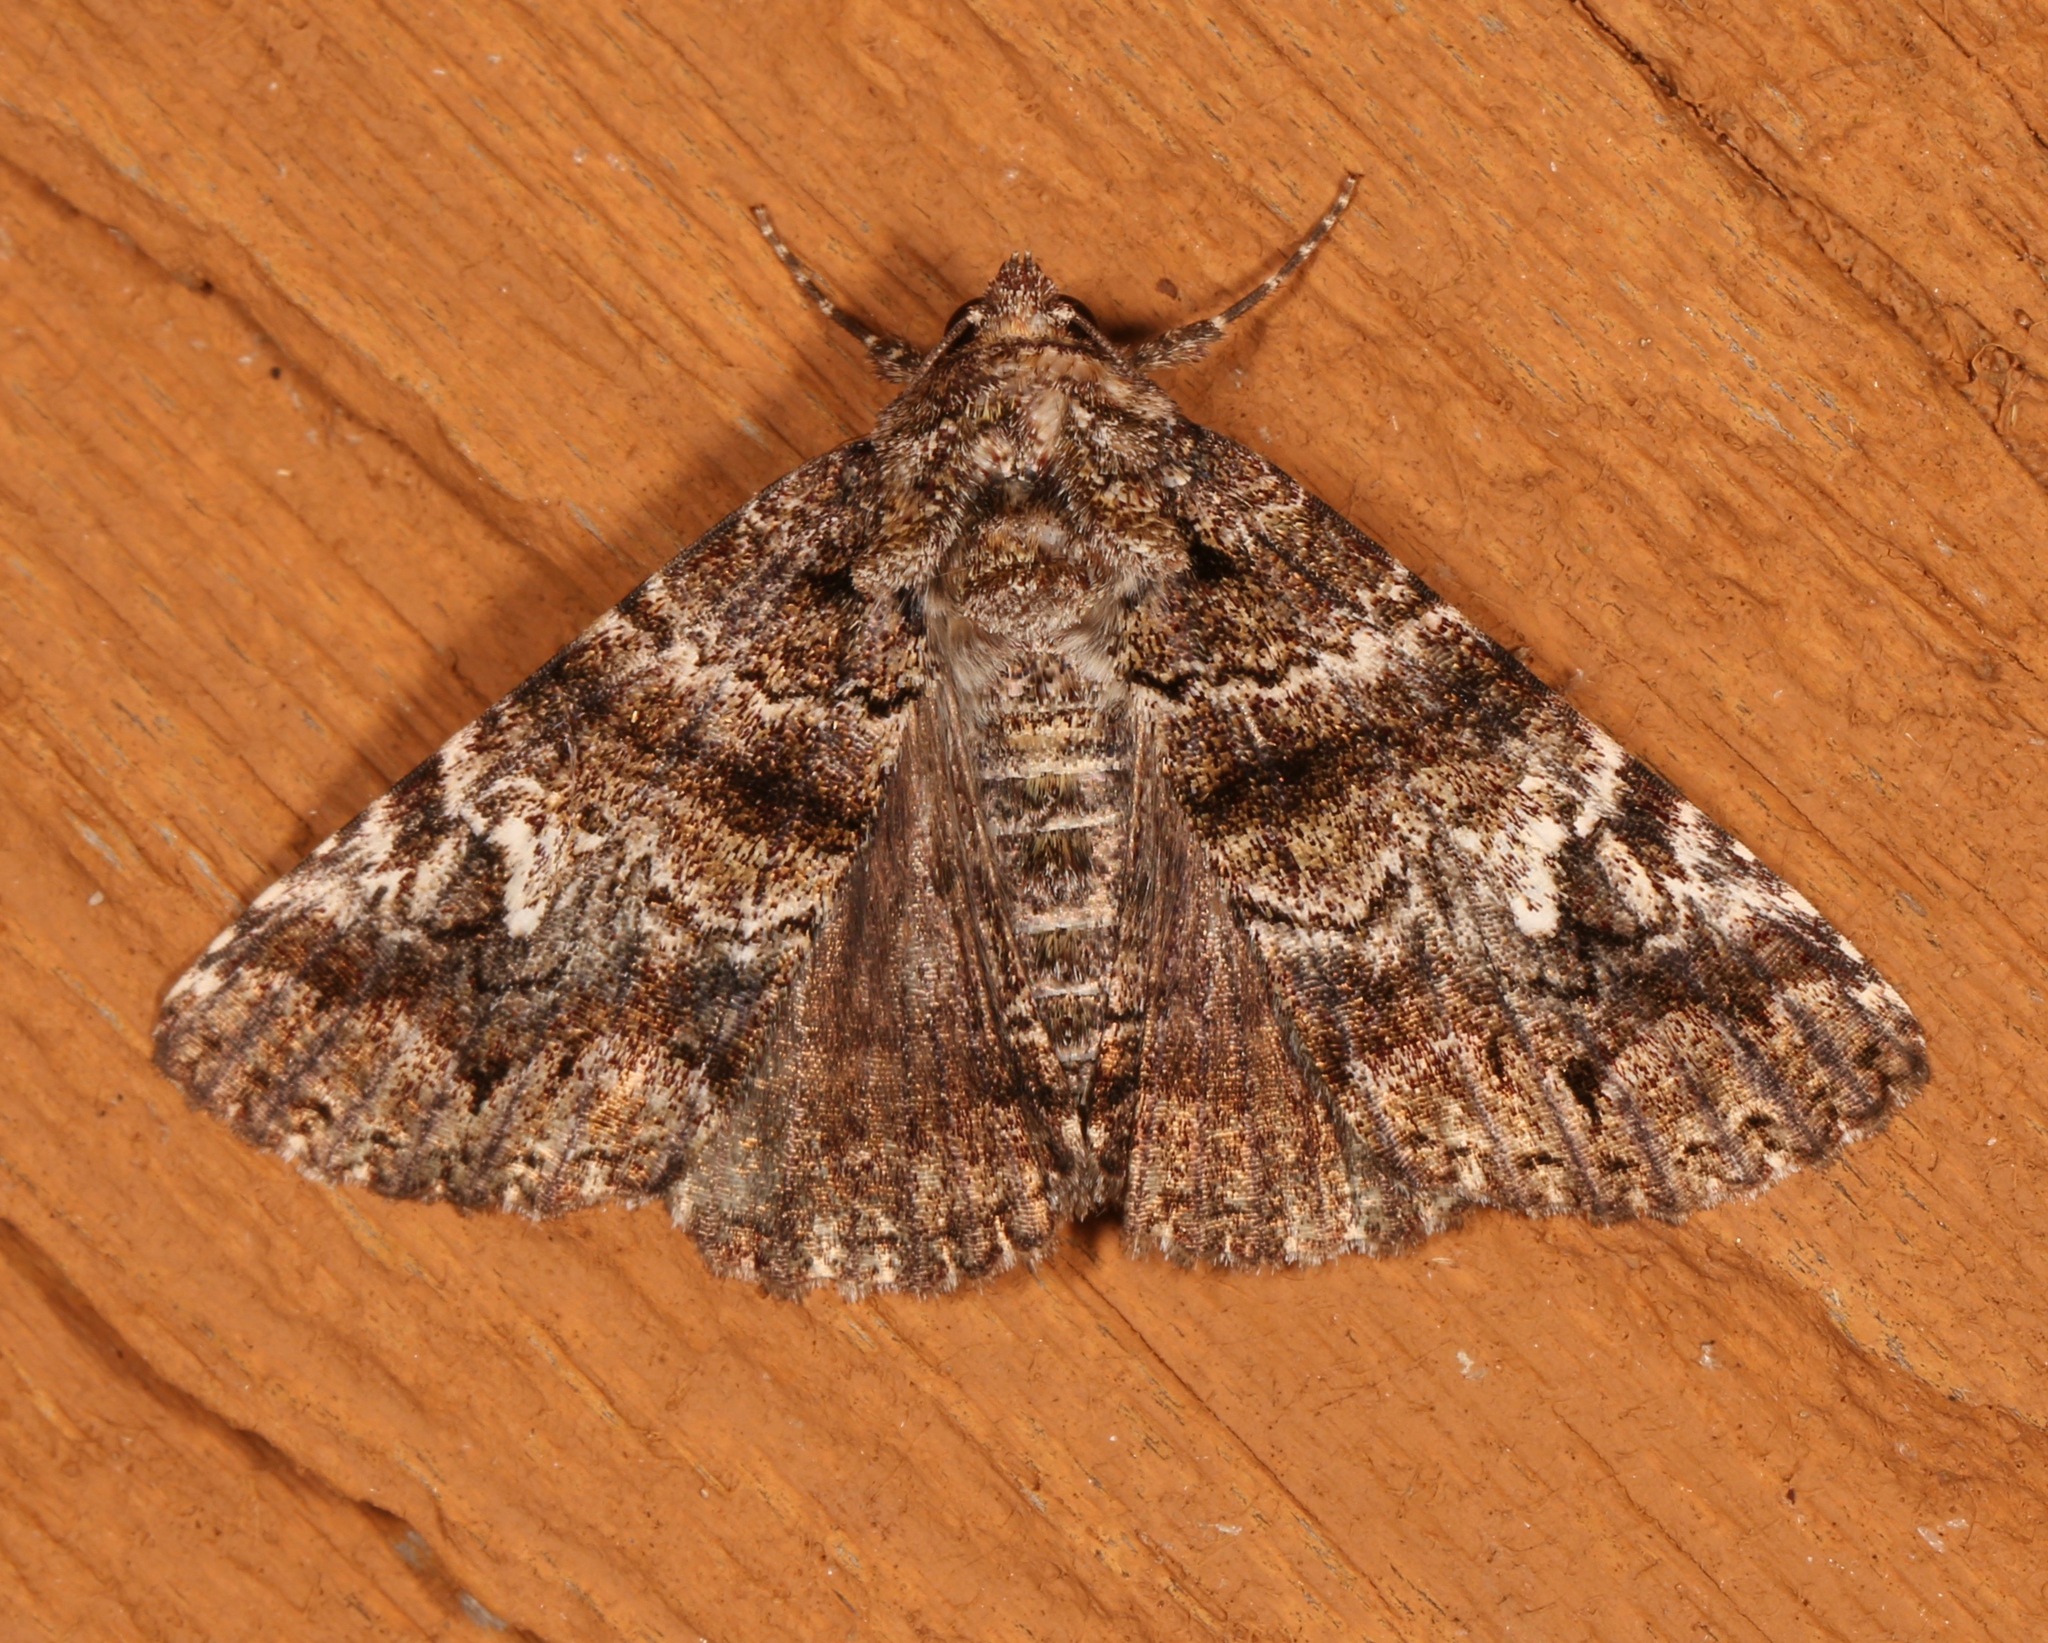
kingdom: Animalia
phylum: Arthropoda
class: Insecta
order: Lepidoptera
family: Erebidae
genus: Metria
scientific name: Metria amella
